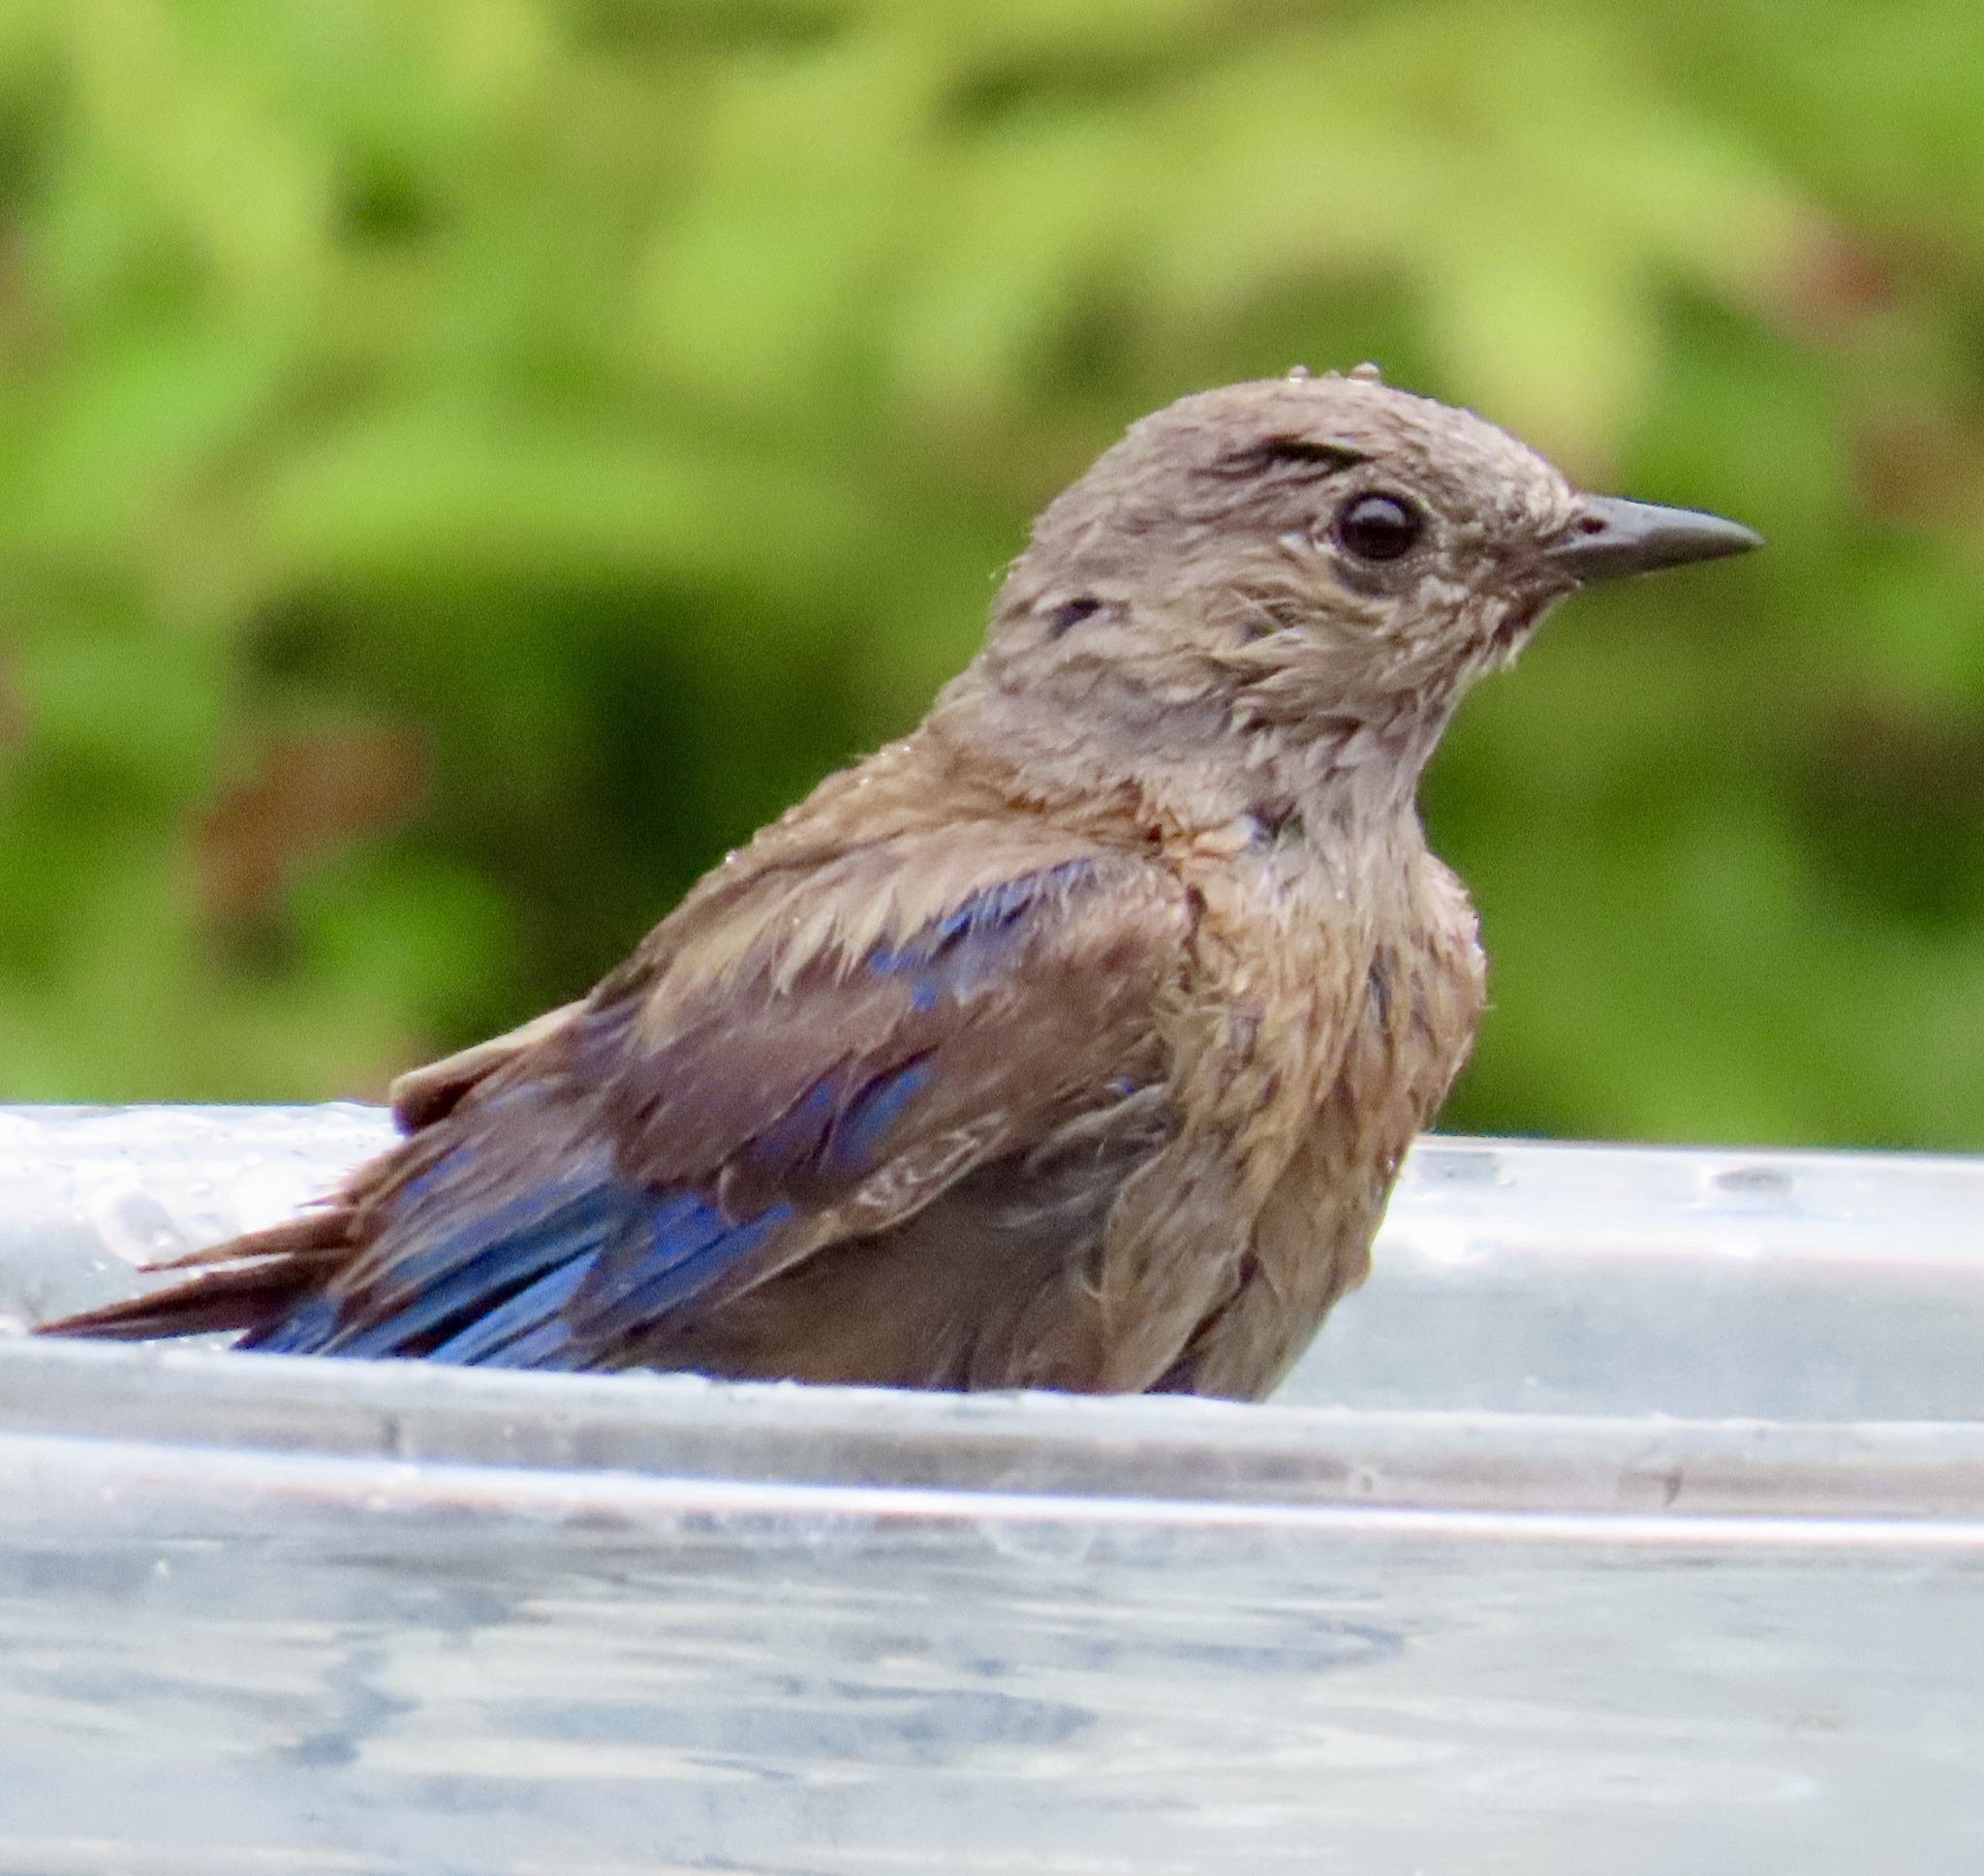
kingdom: Animalia
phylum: Chordata
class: Aves
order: Passeriformes
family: Turdidae
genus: Sialia
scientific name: Sialia mexicana
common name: Western bluebird
